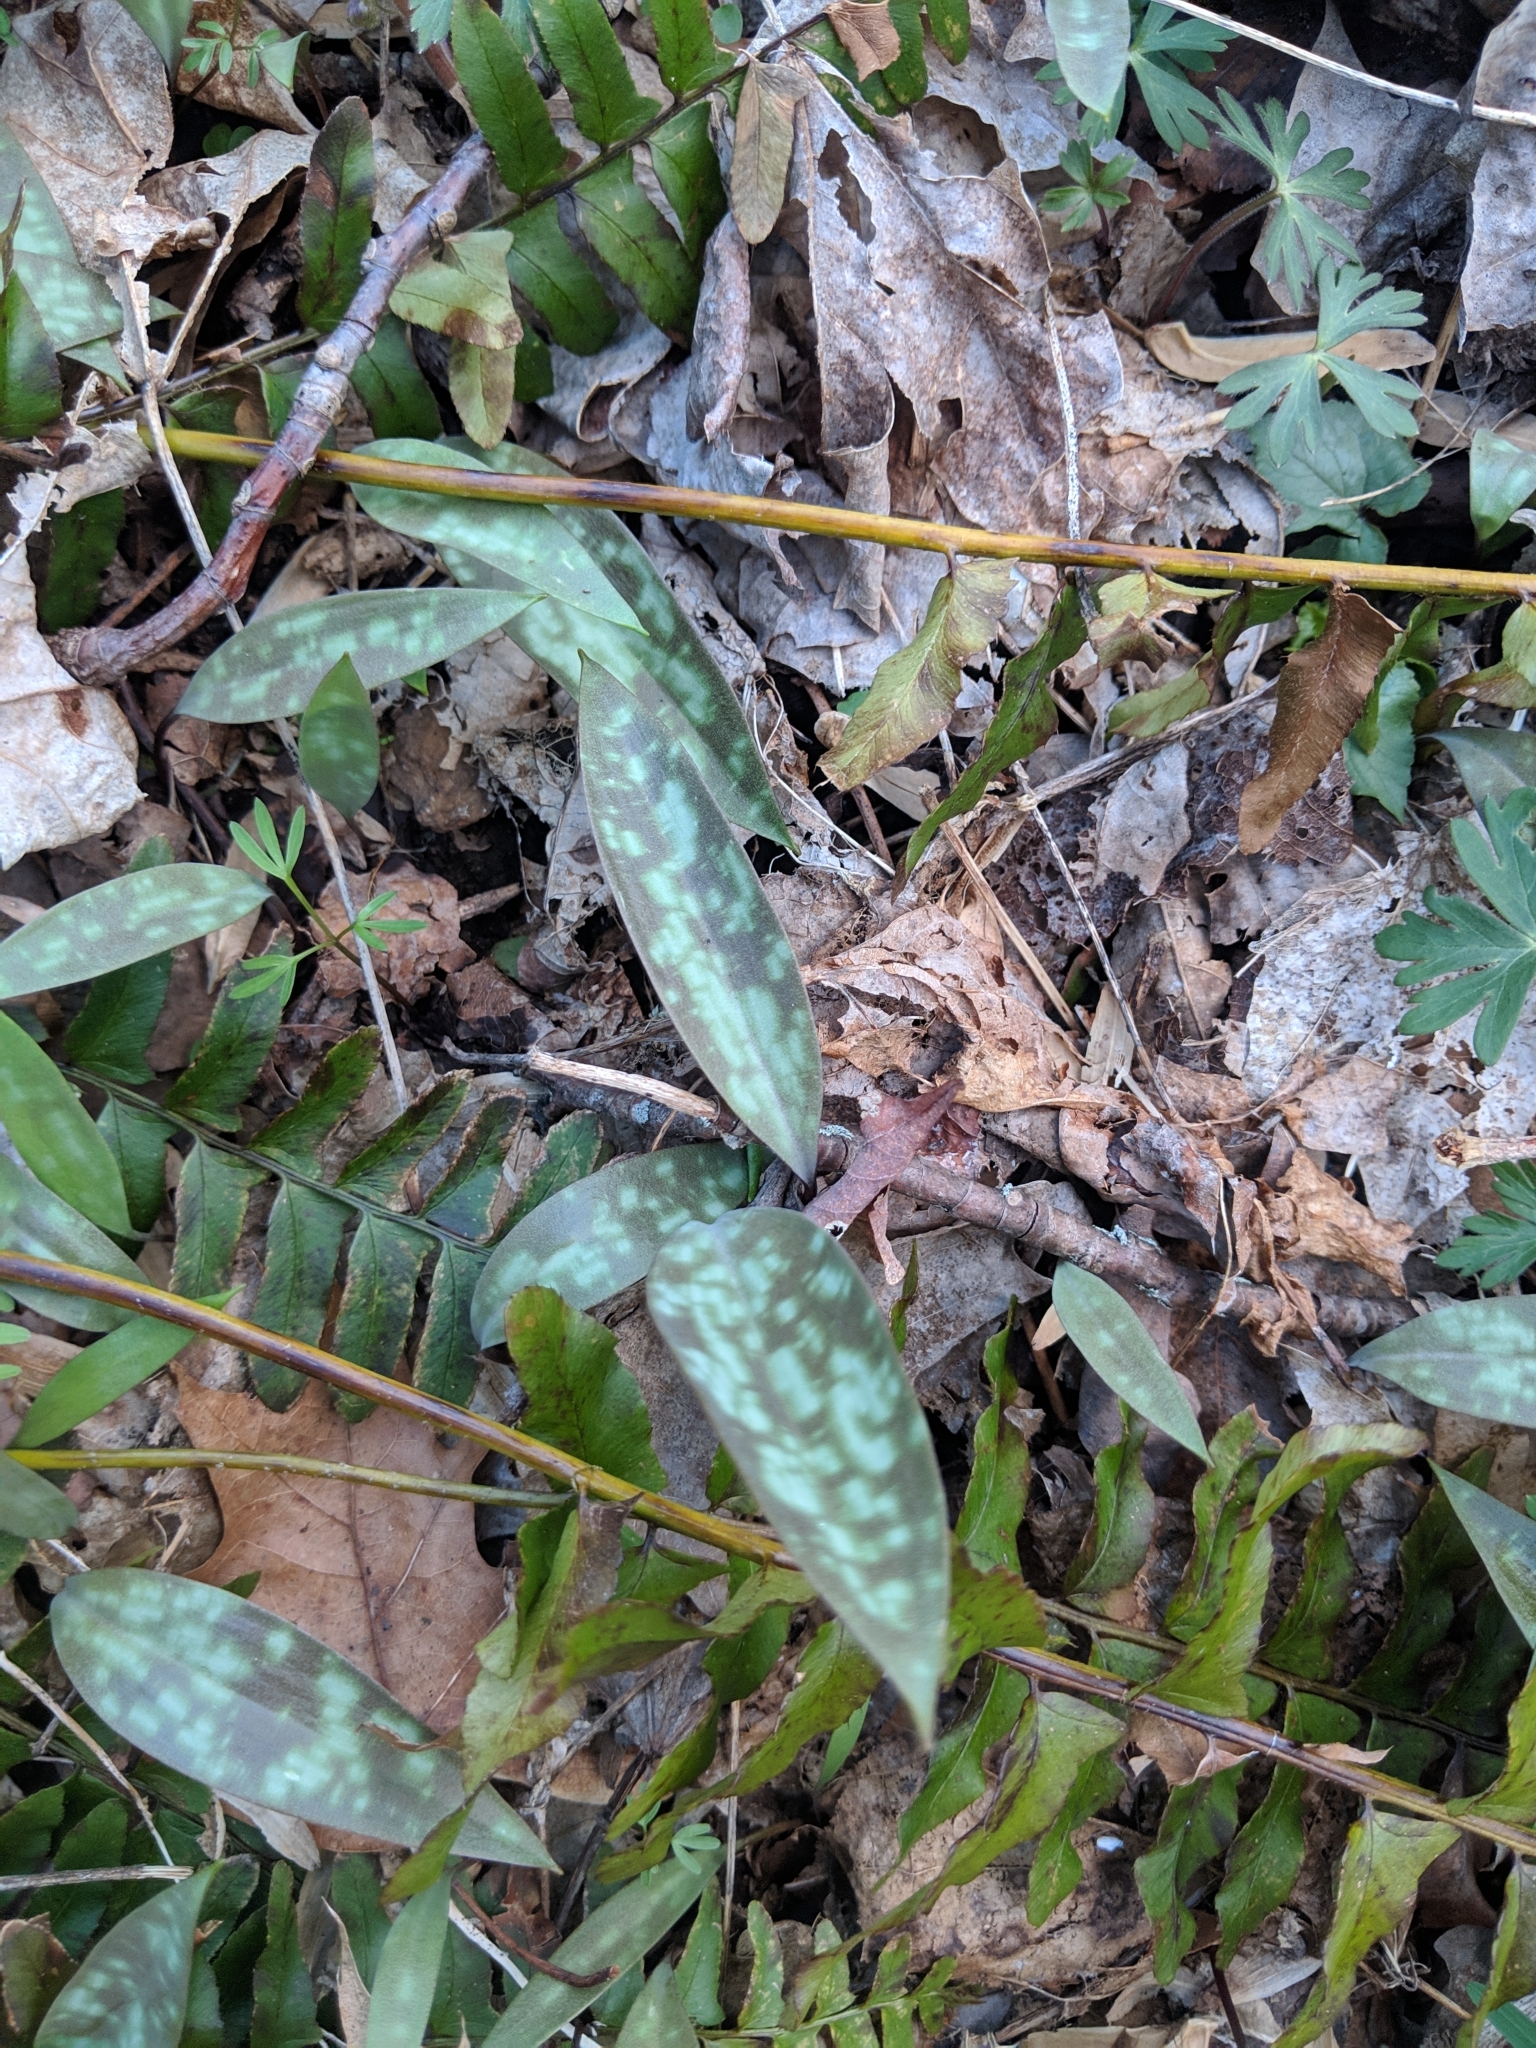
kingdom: Plantae
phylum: Tracheophyta
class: Liliopsida
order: Liliales
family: Liliaceae
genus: Erythronium
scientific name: Erythronium americanum
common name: Yellow adder's-tongue
